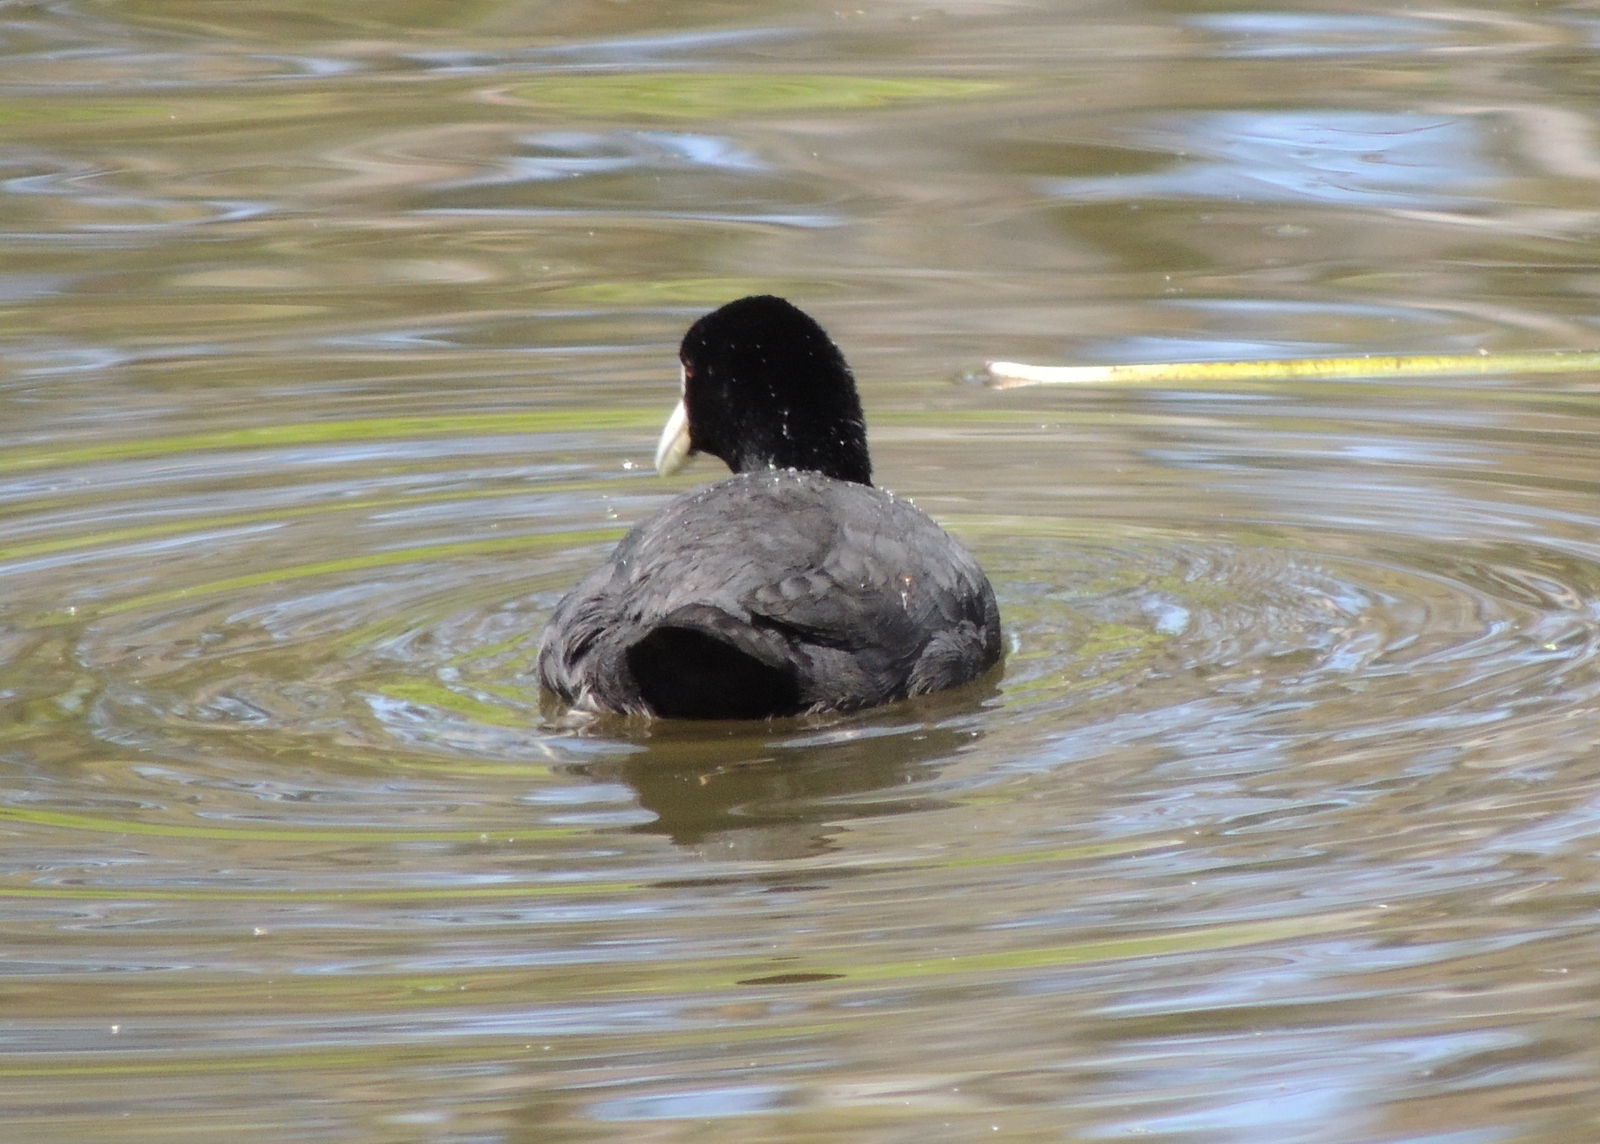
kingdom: Animalia
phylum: Chordata
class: Aves
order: Gruiformes
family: Rallidae
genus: Fulica
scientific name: Fulica atra
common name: Eurasian coot
